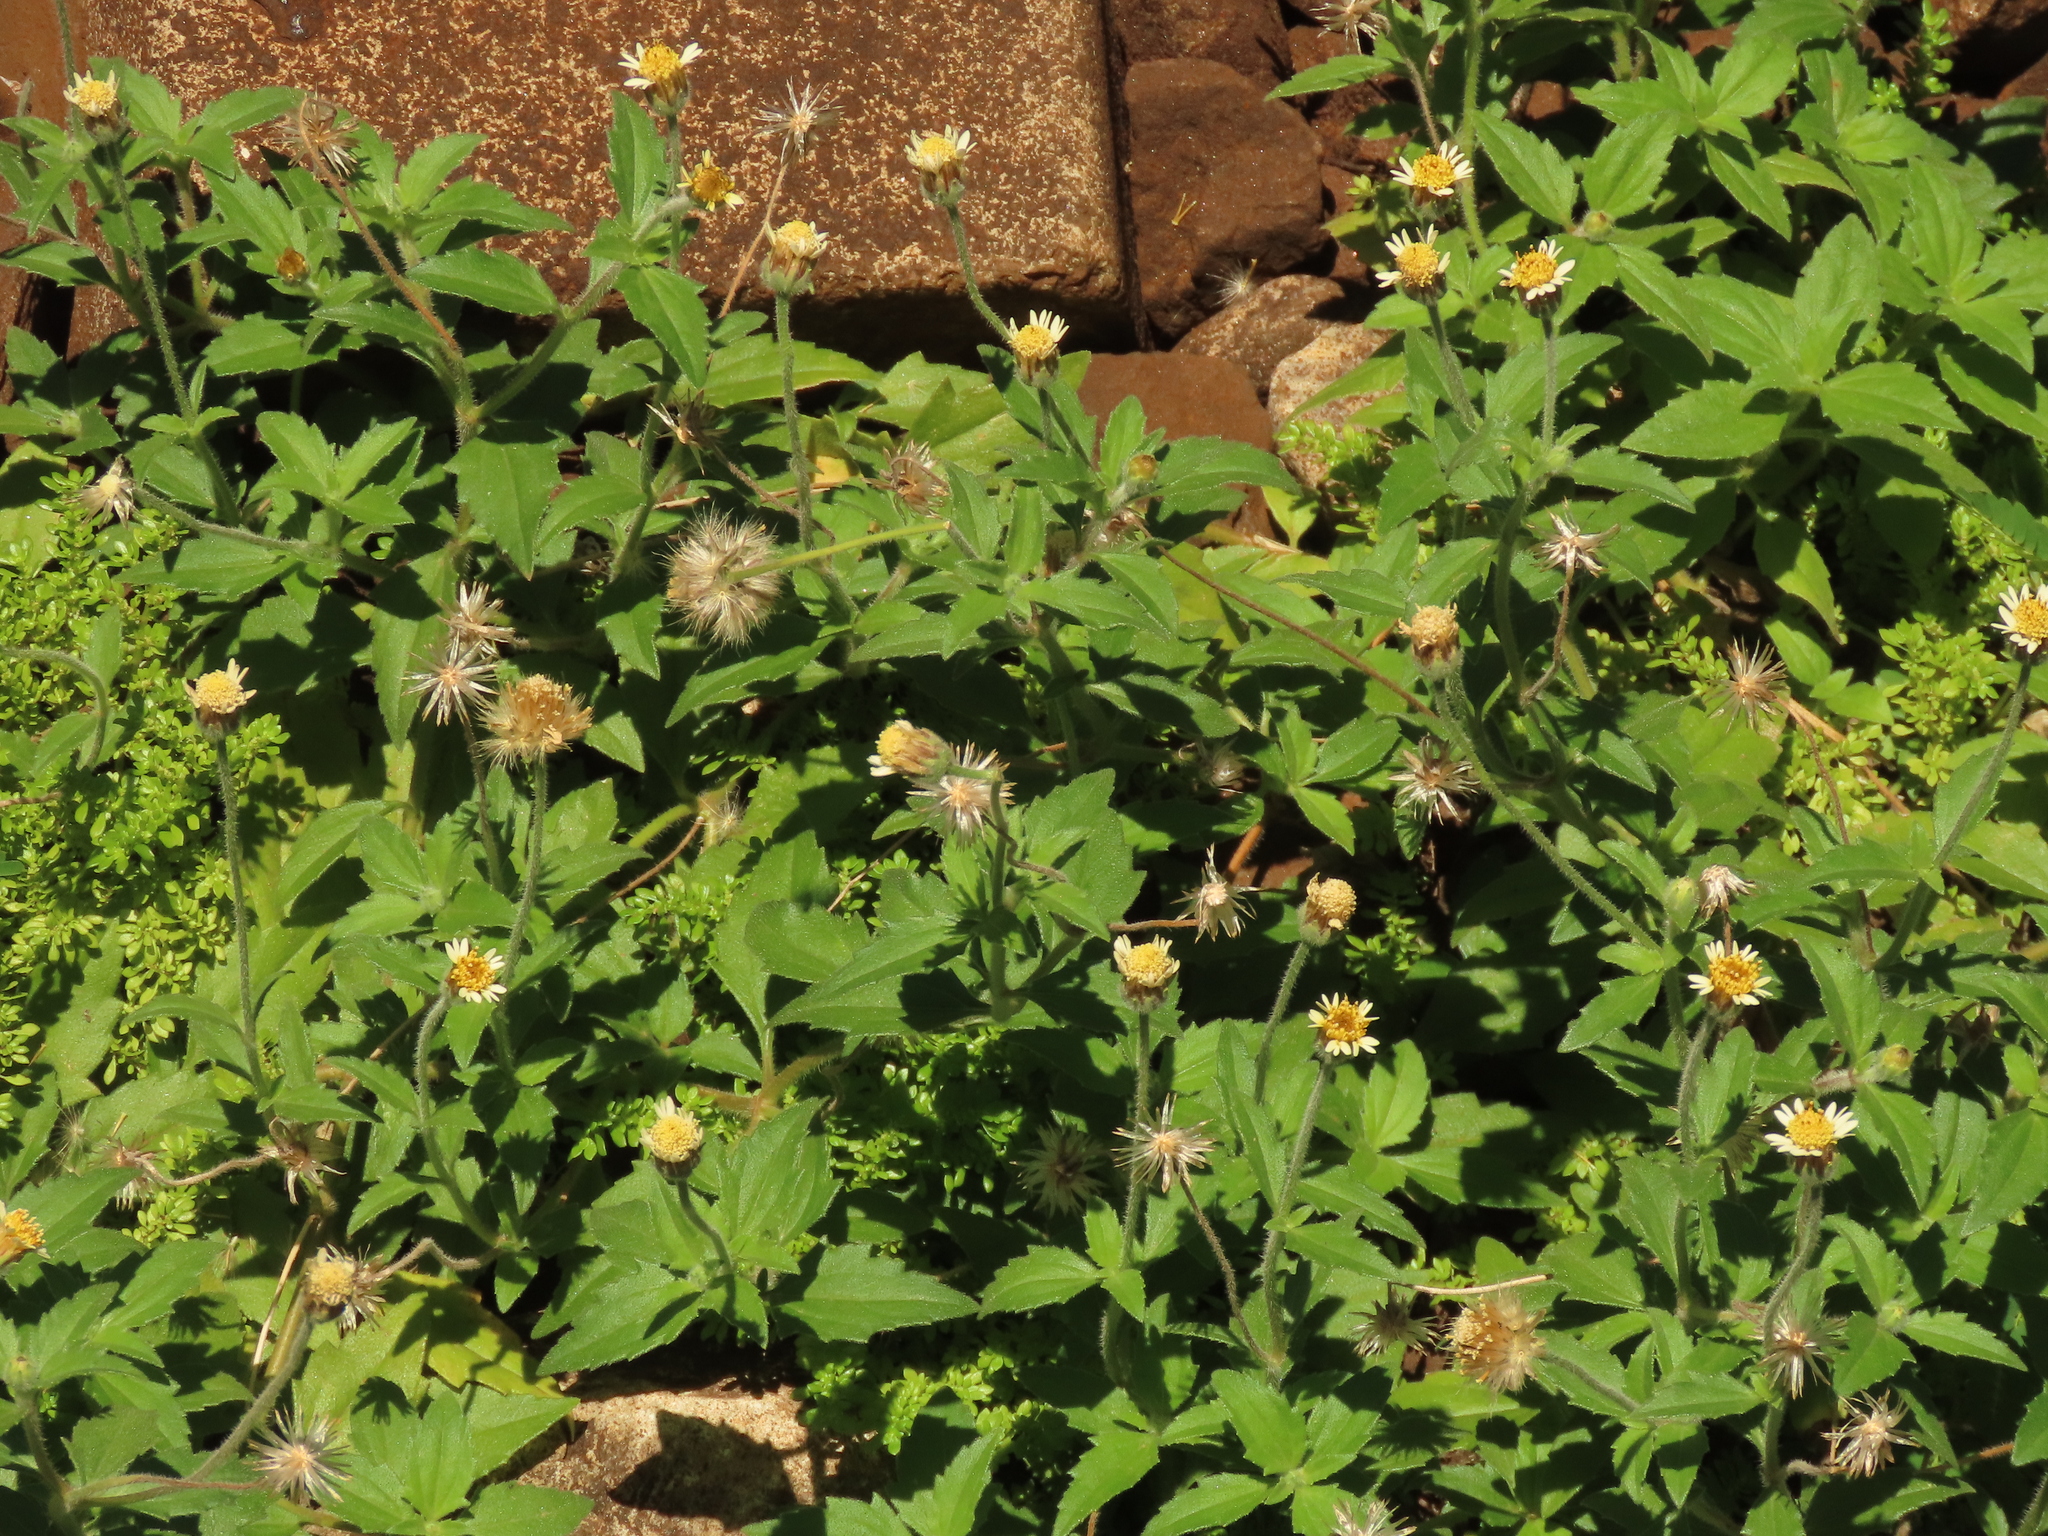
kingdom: Plantae
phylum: Tracheophyta
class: Magnoliopsida
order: Asterales
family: Asteraceae
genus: Tridax
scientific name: Tridax procumbens
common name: Coatbuttons
